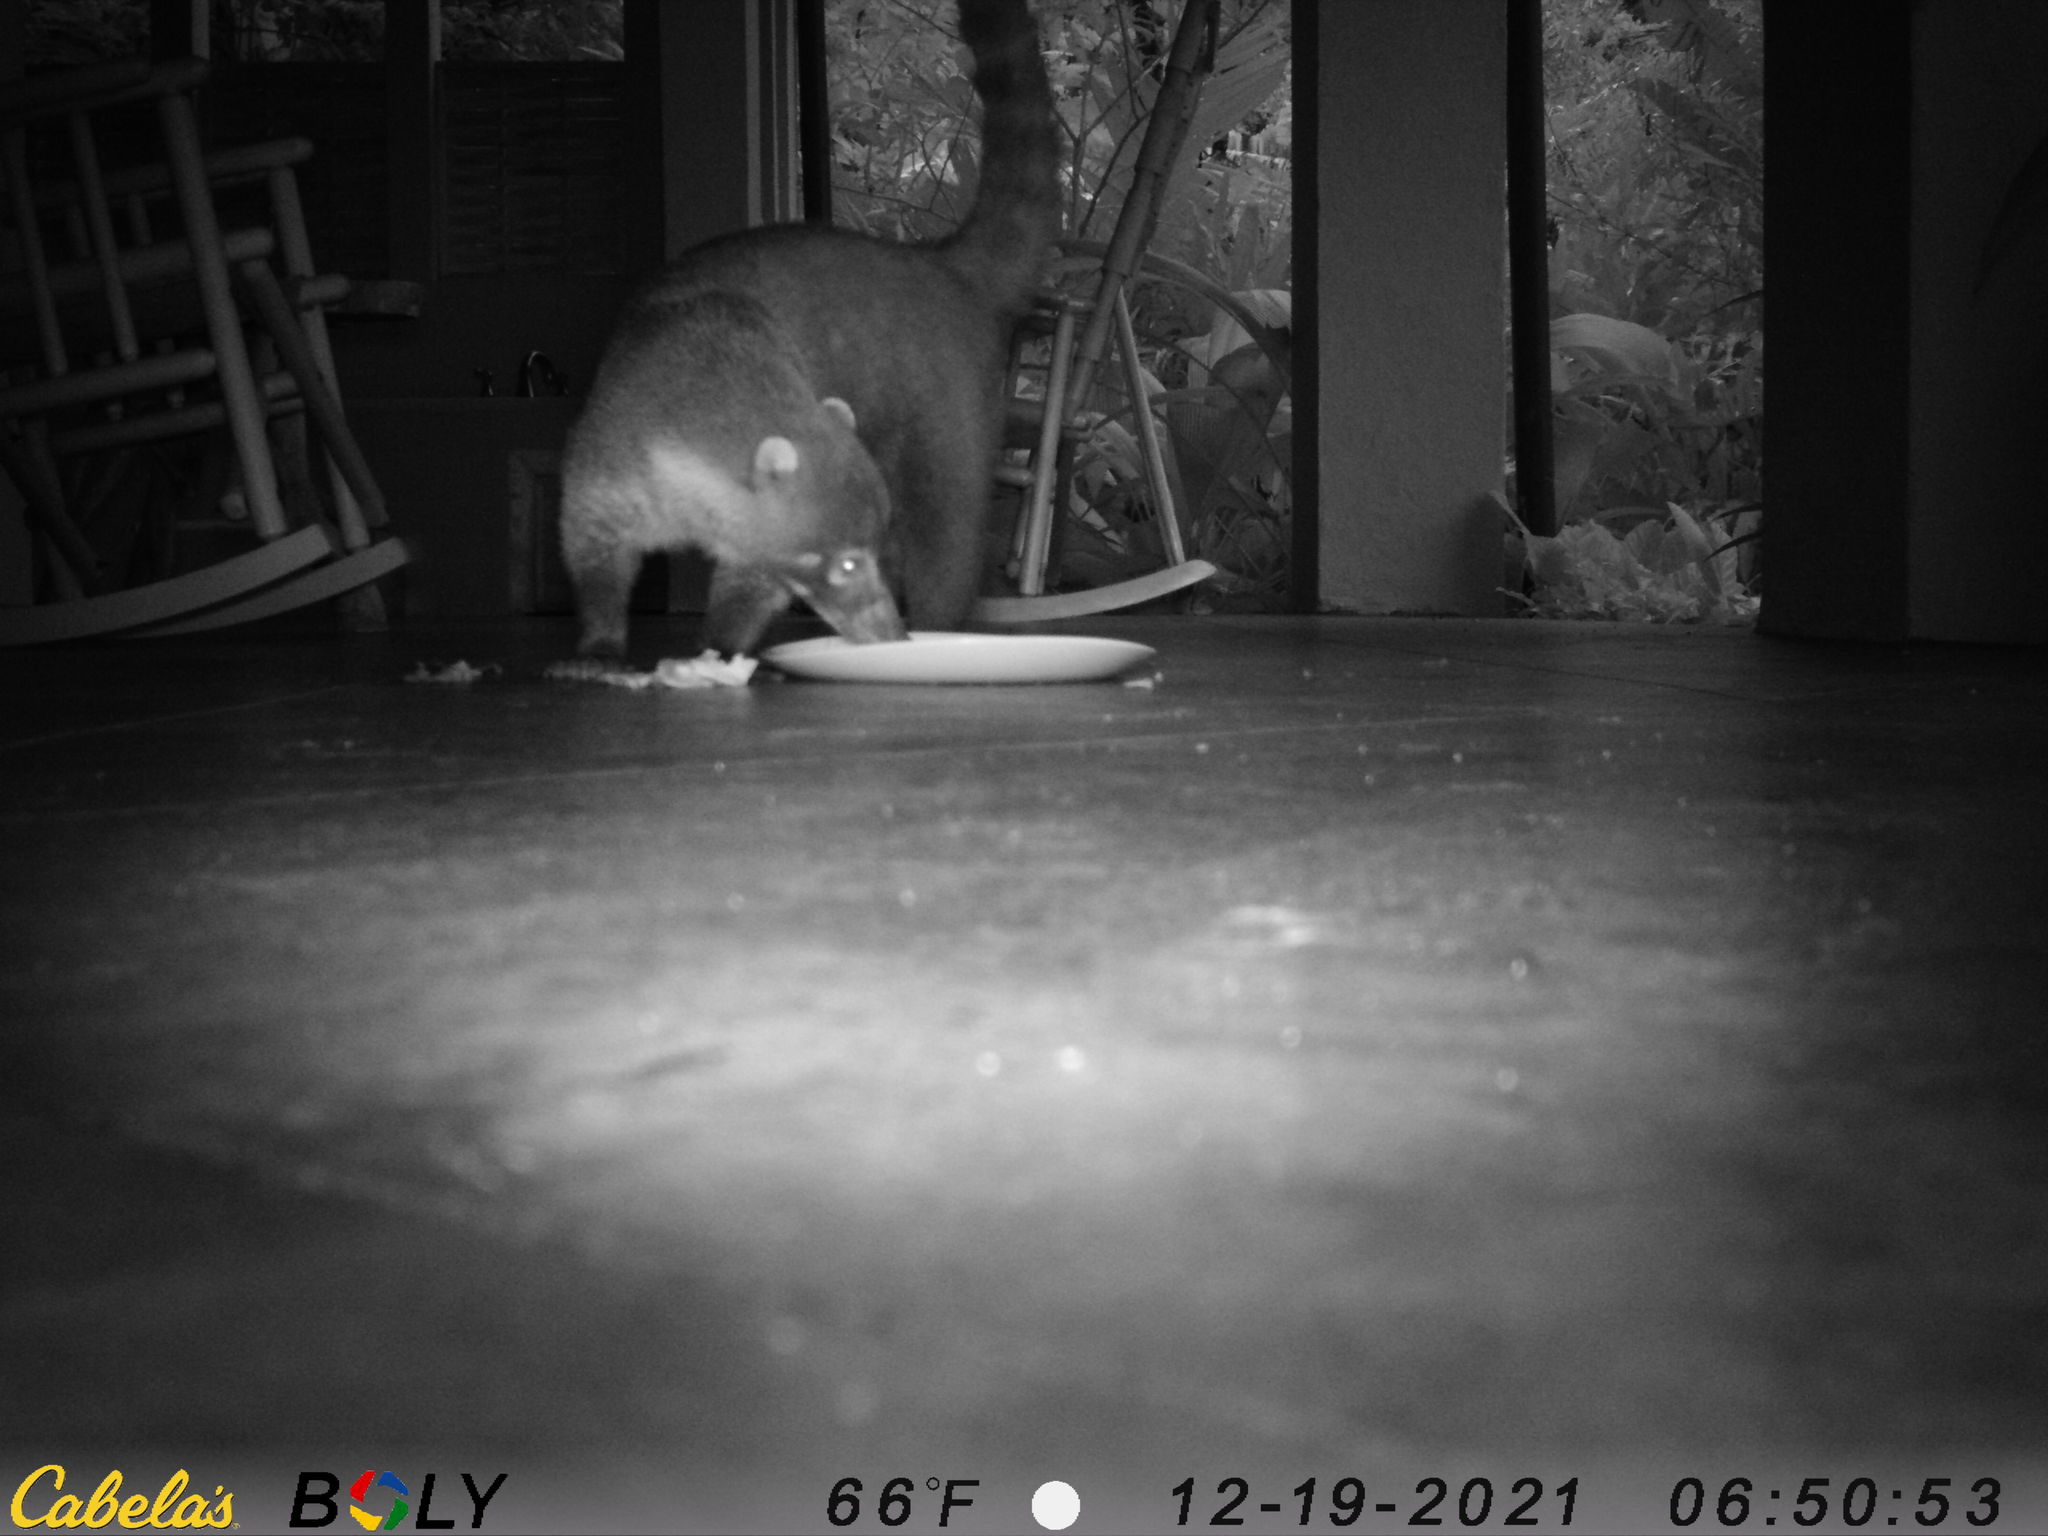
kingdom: Animalia
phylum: Chordata
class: Mammalia
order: Carnivora
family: Procyonidae
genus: Nasua
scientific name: Nasua narica
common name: White-nosed coati
